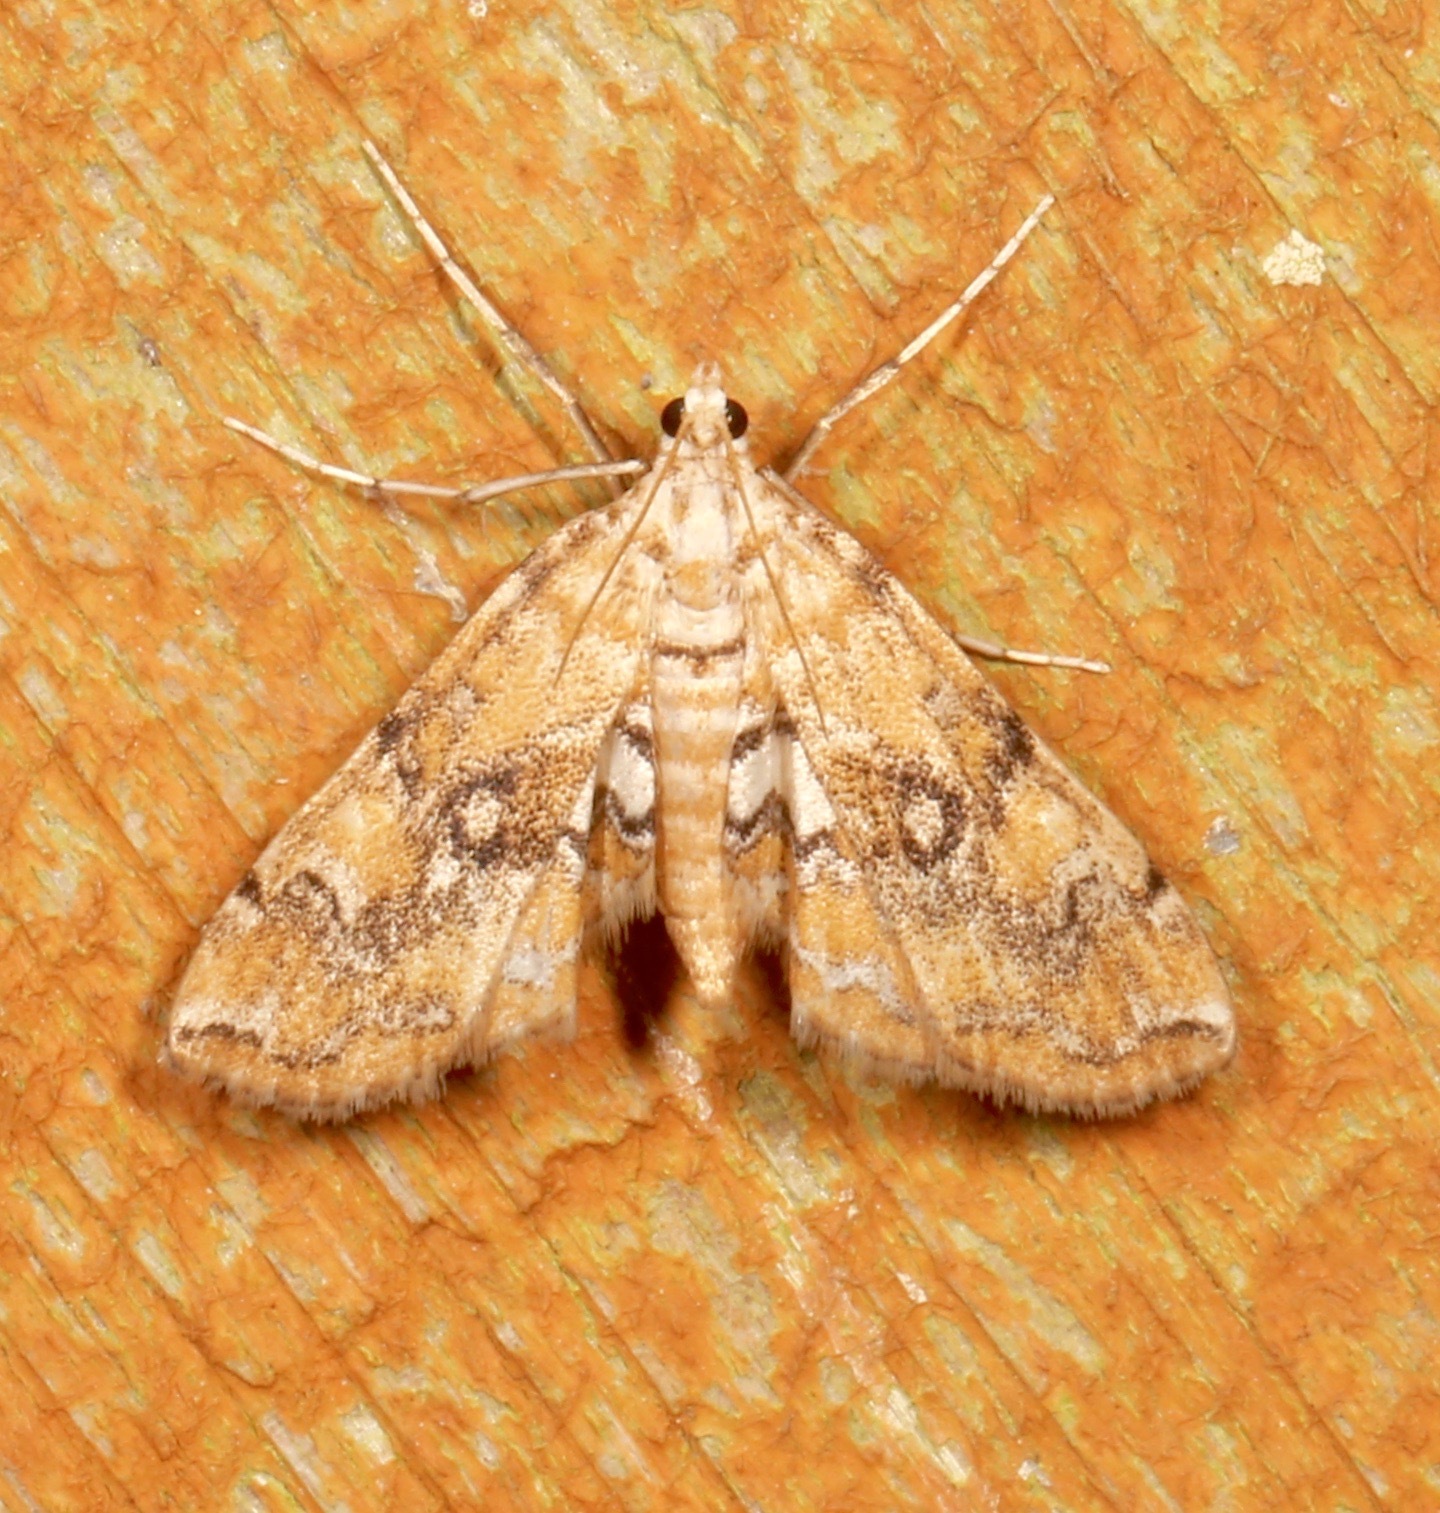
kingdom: Animalia
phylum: Arthropoda
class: Insecta
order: Lepidoptera
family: Crambidae
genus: Elophila
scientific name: Elophila faulalis
